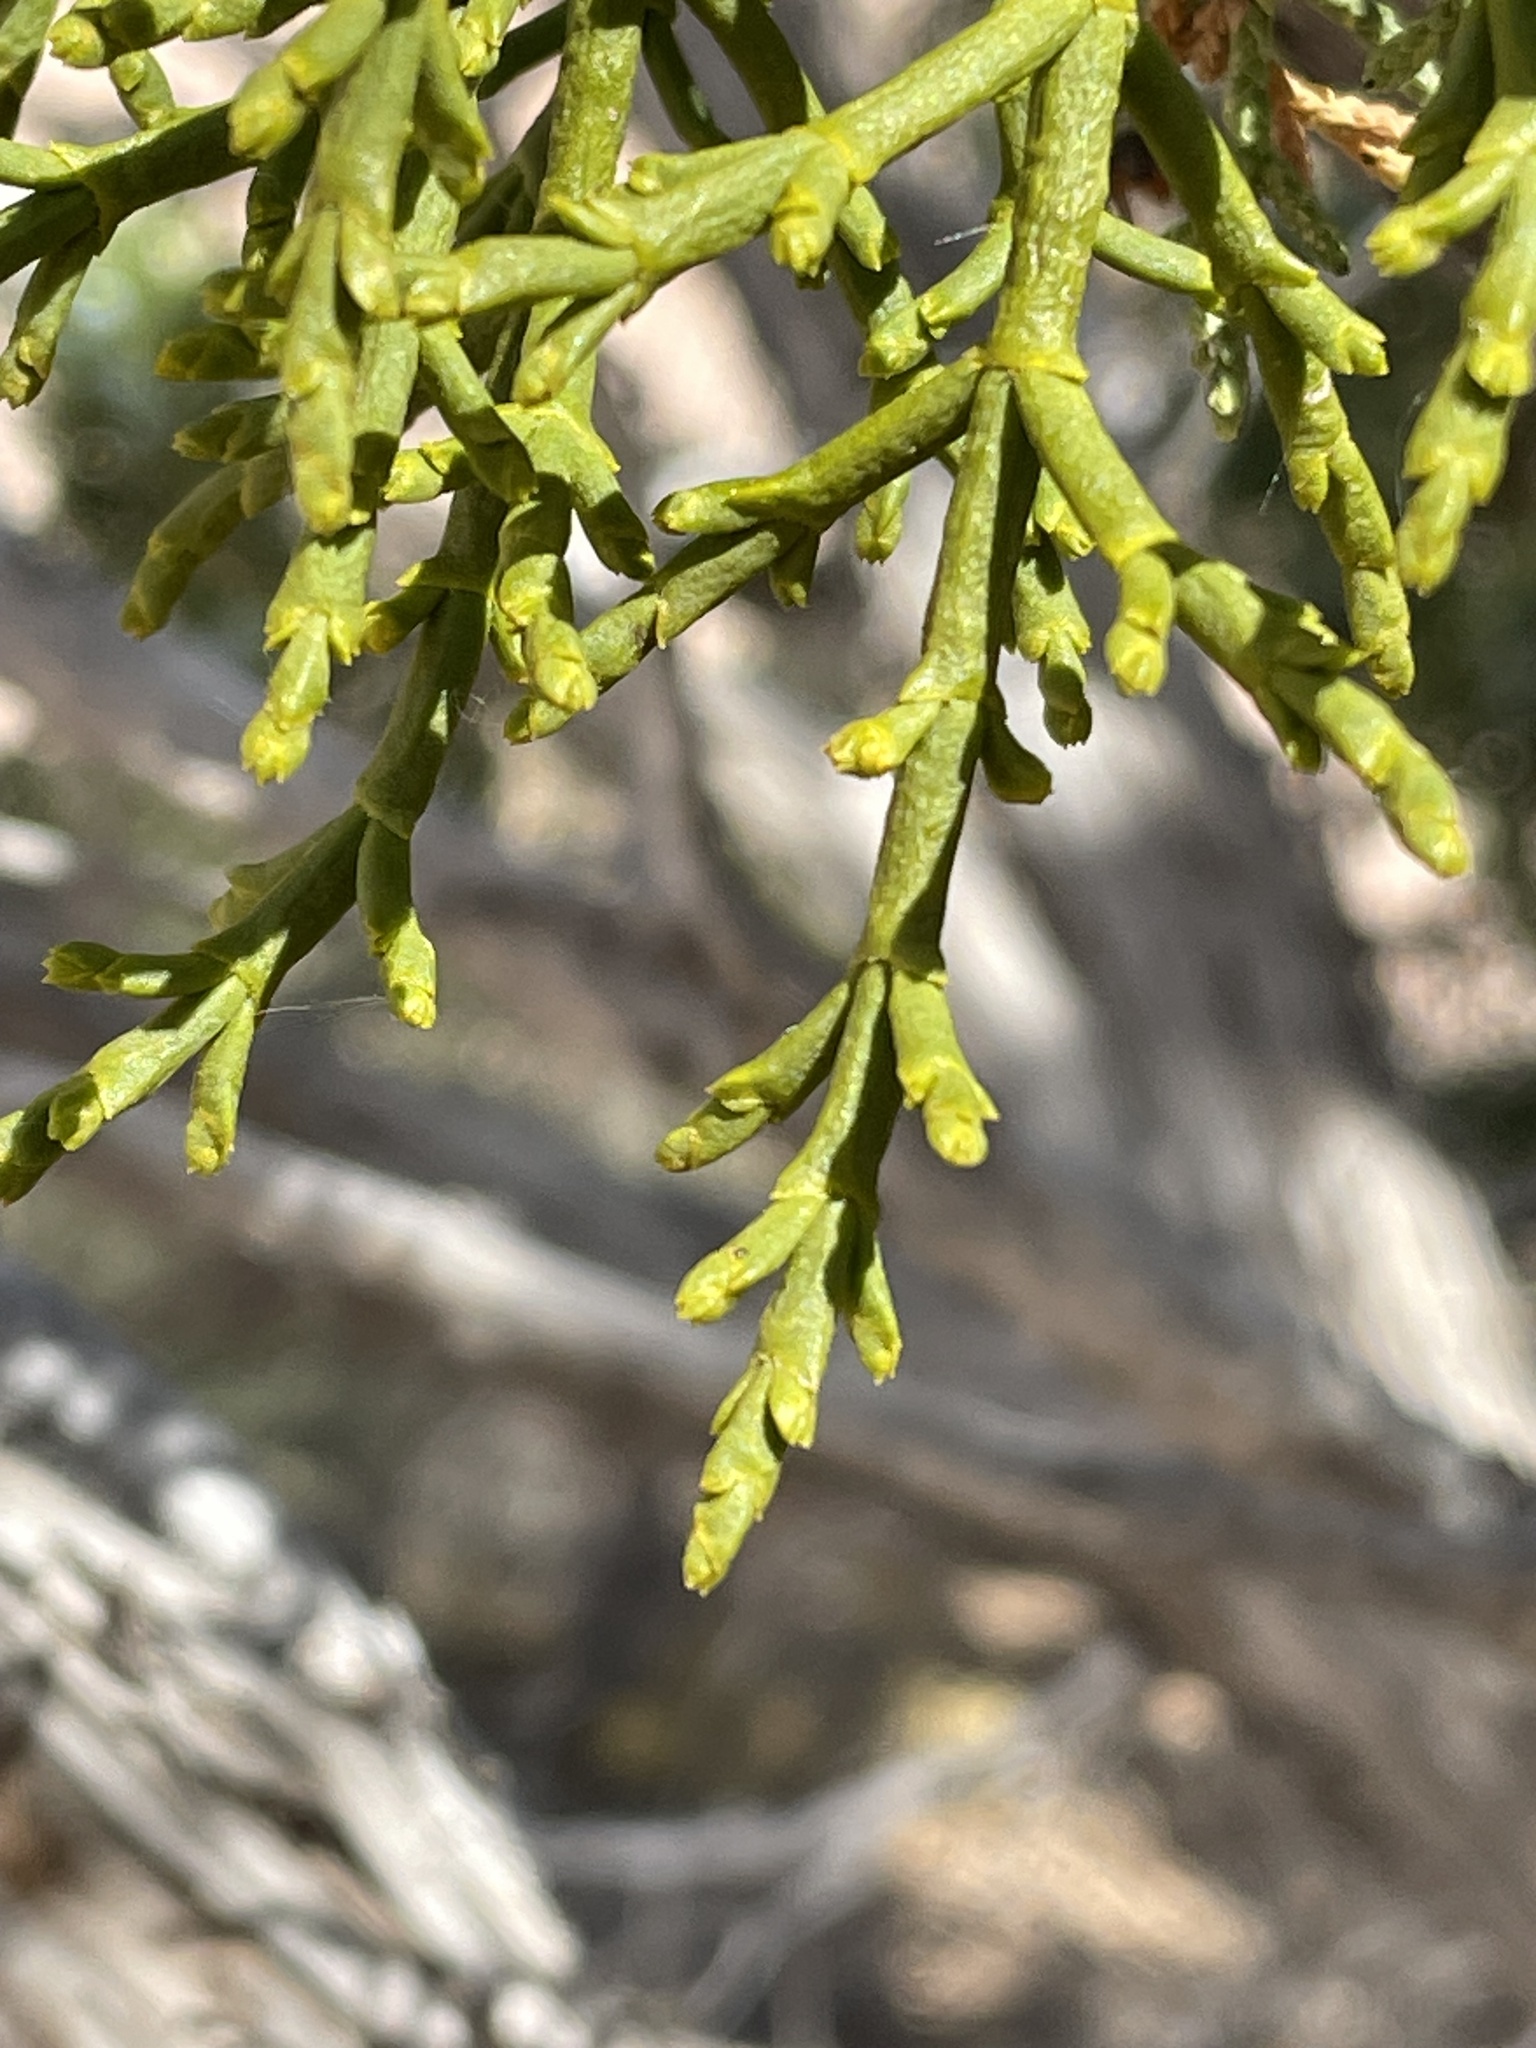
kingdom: Plantae
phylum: Tracheophyta
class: Magnoliopsida
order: Santalales
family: Viscaceae
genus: Phoradendron
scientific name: Phoradendron juniperinum
